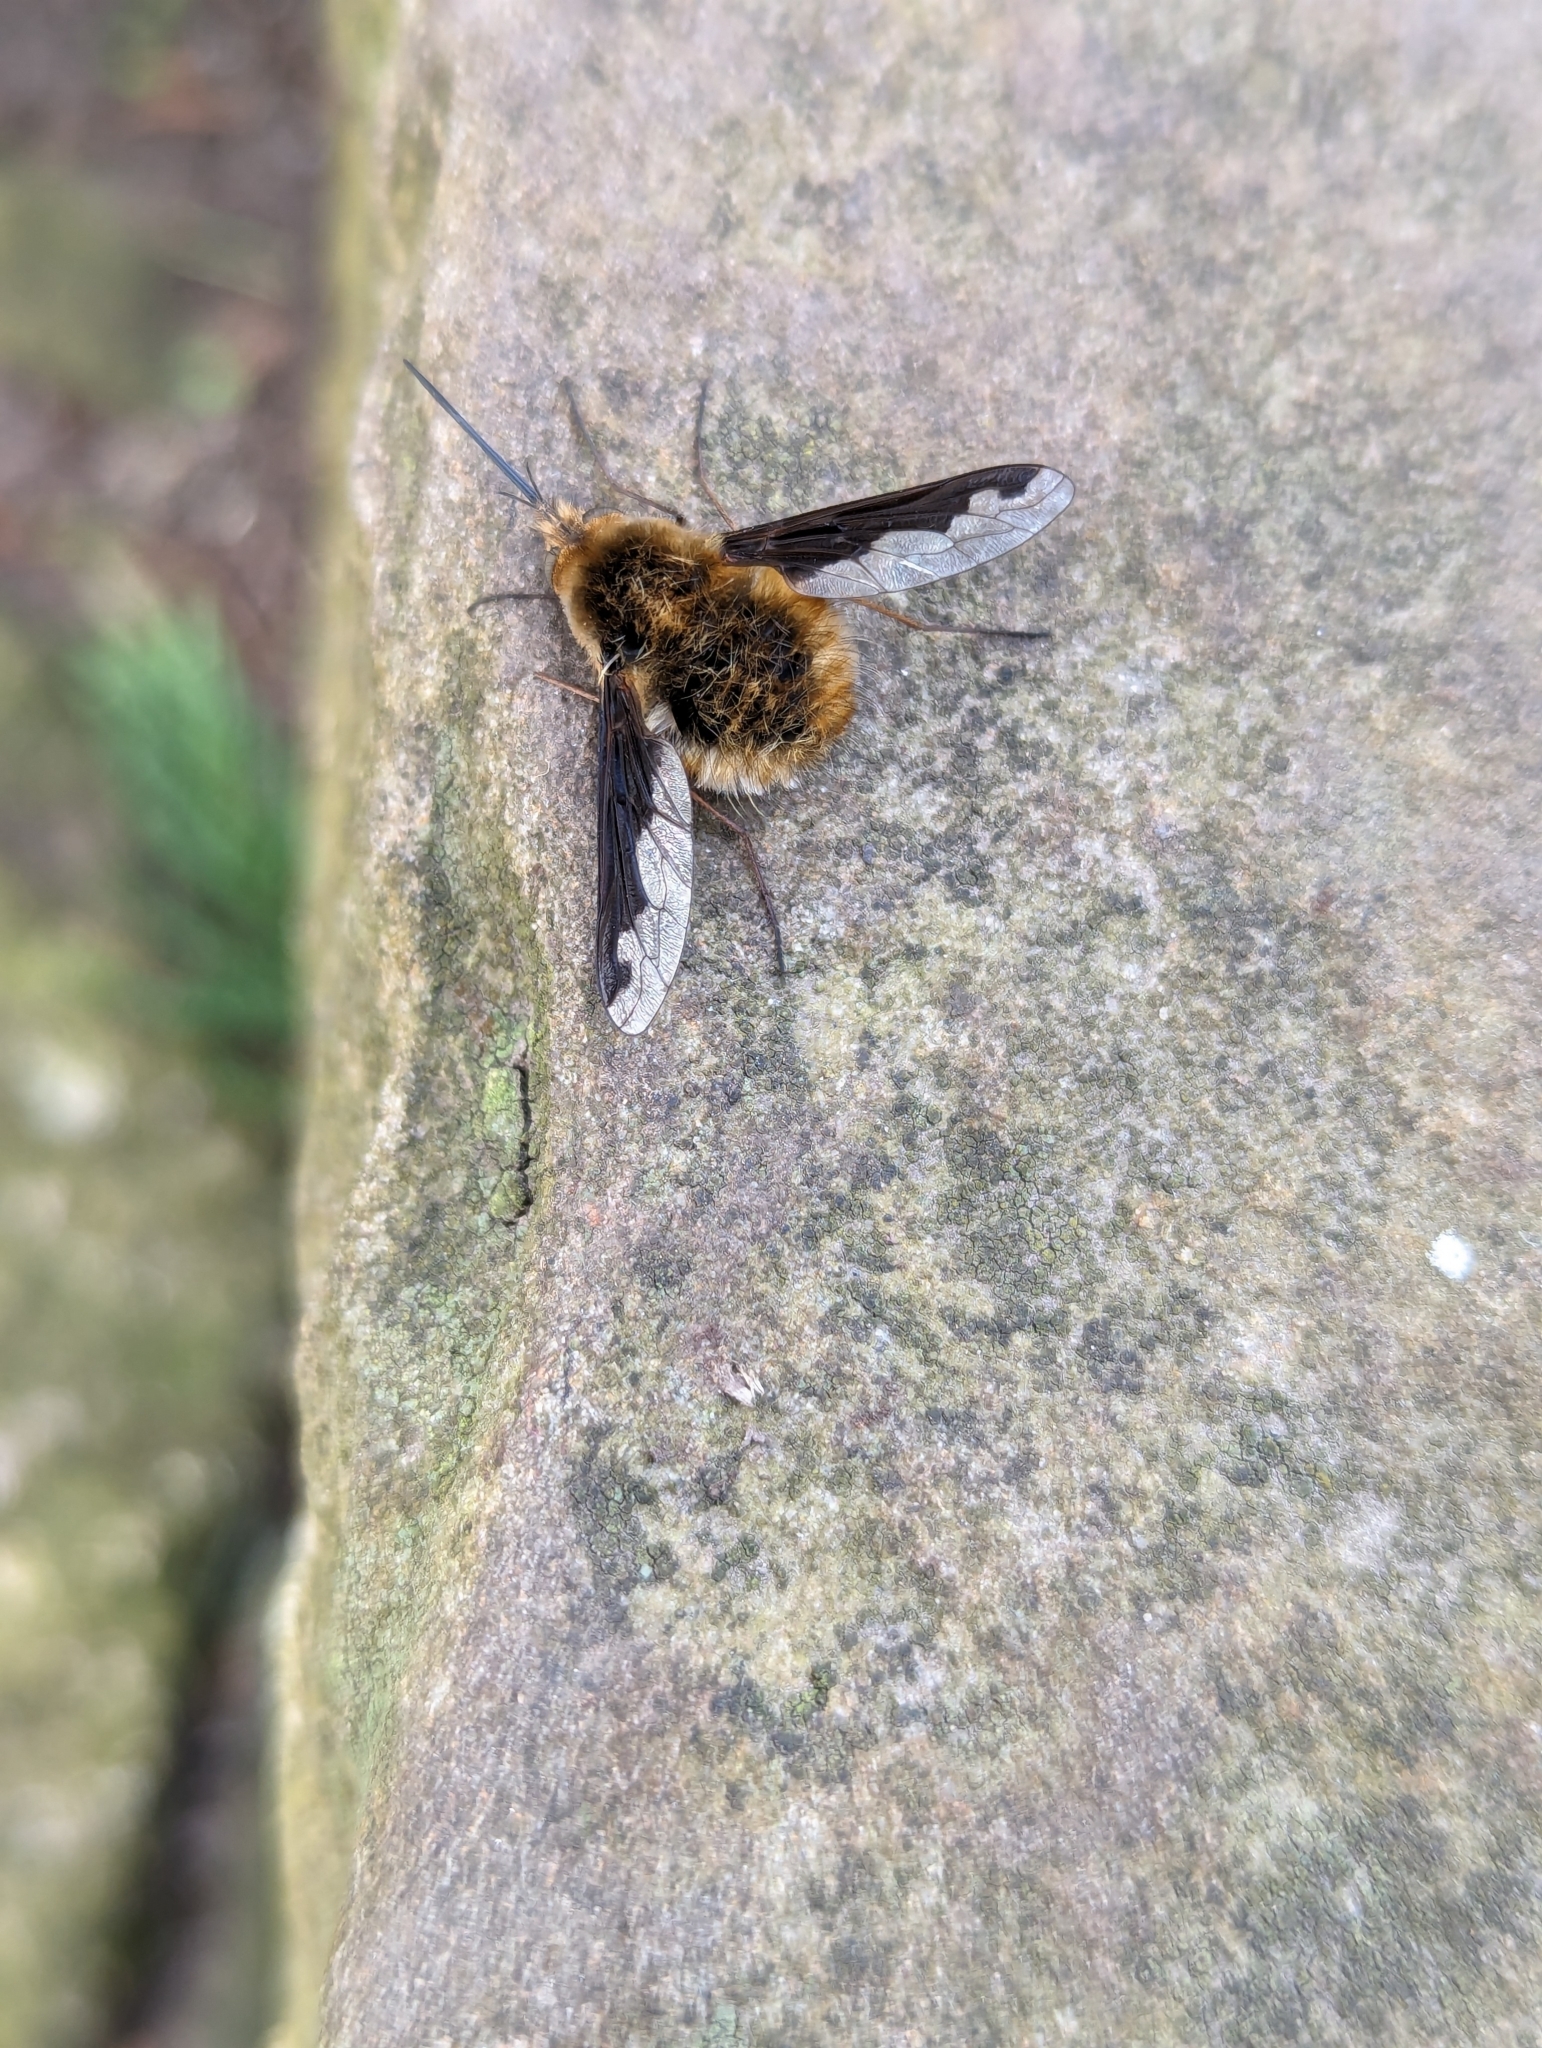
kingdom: Animalia
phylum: Arthropoda
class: Insecta
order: Diptera
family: Bombyliidae
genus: Bombylius
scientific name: Bombylius major
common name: Bee fly
